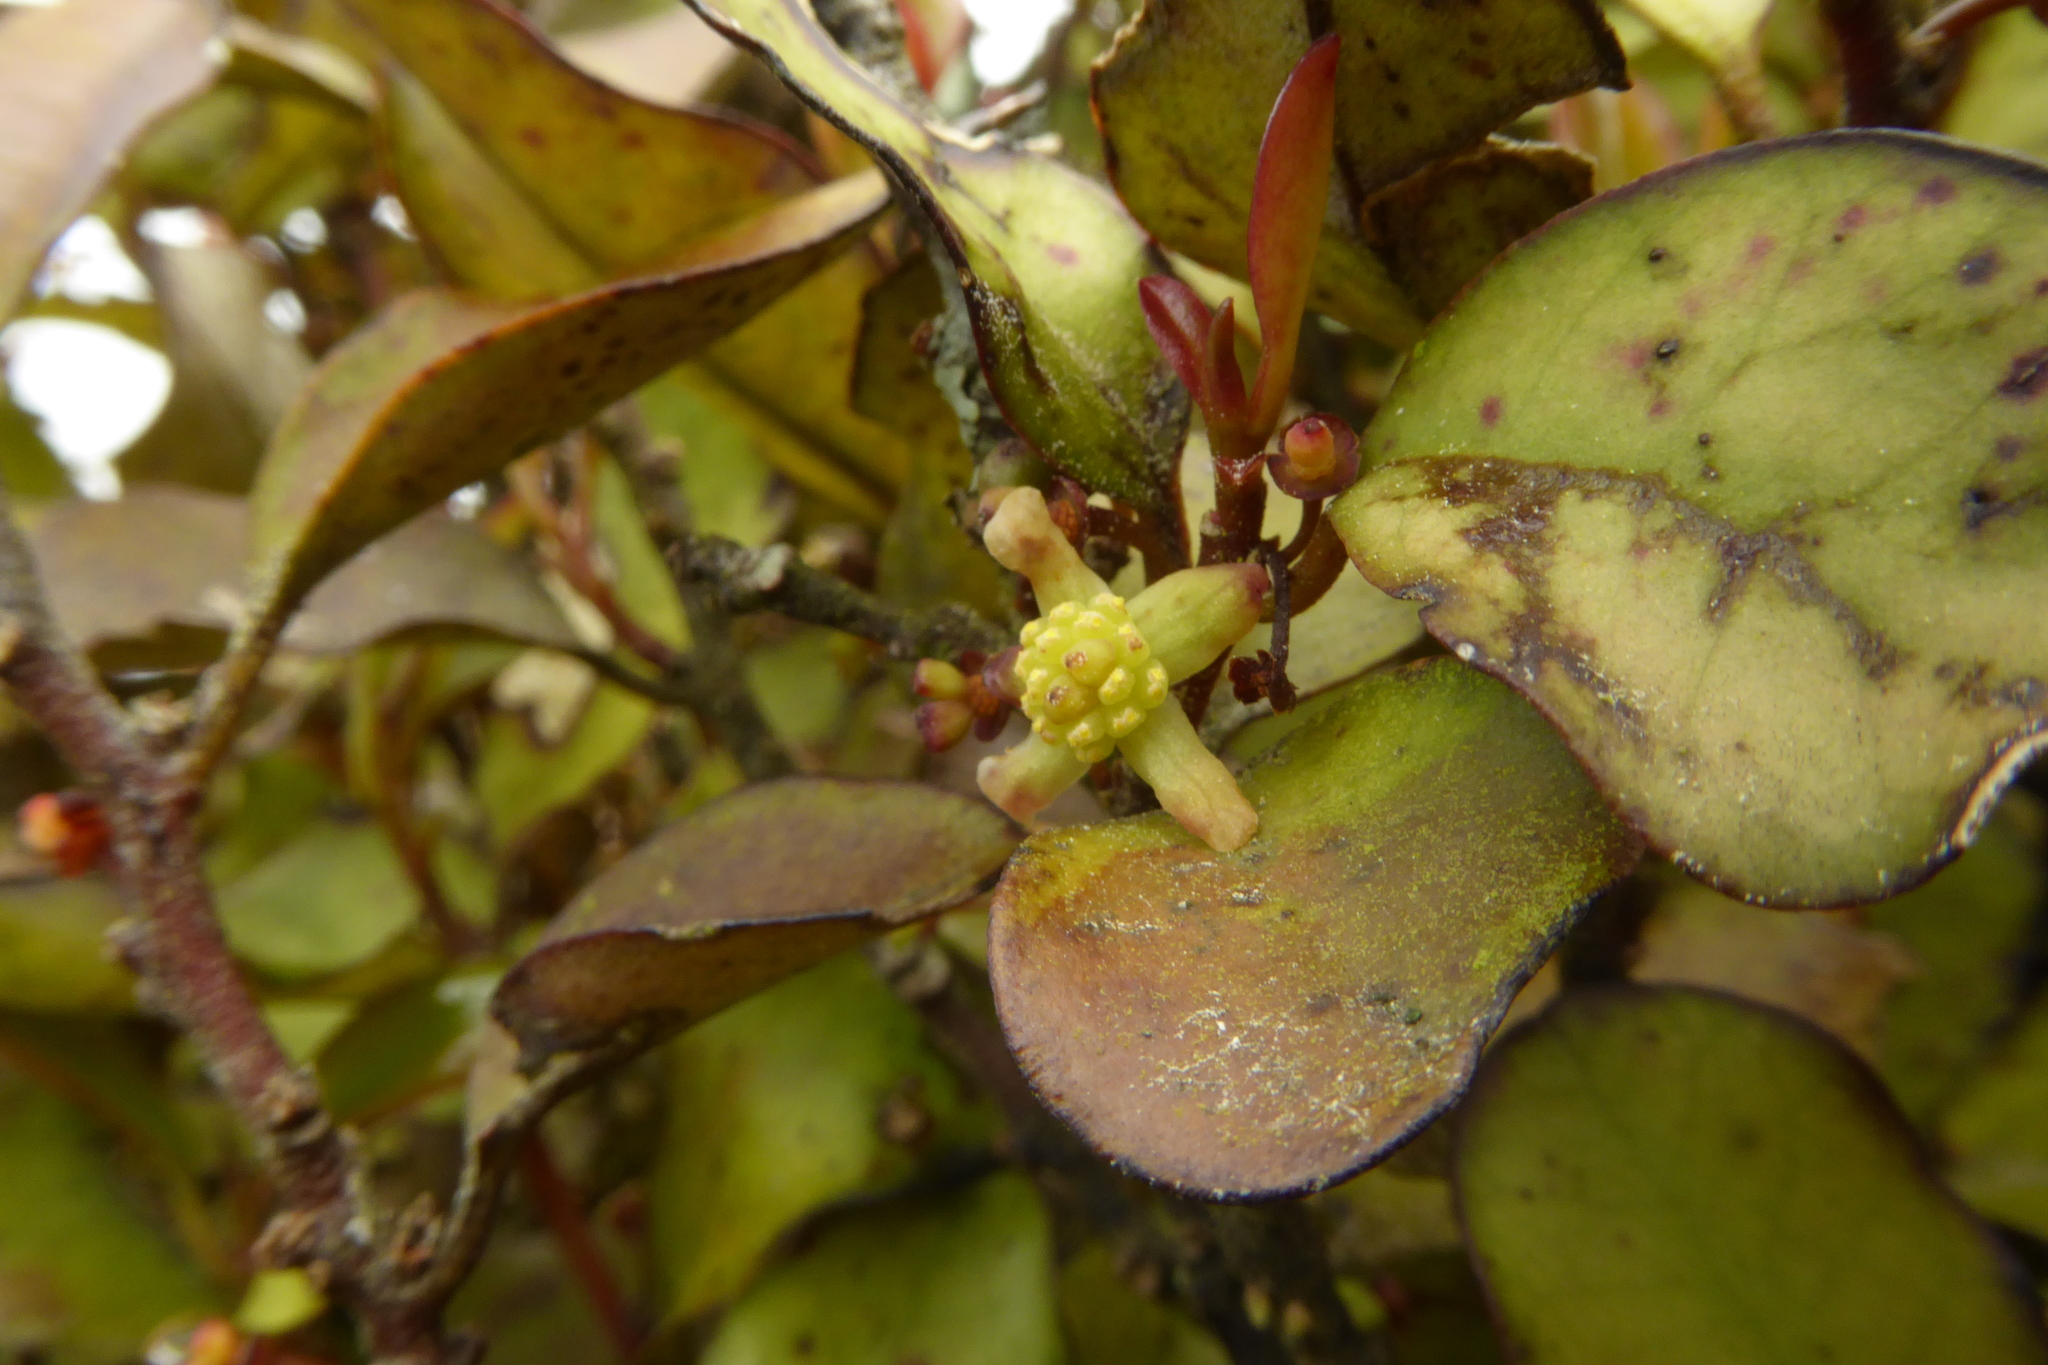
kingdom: Plantae
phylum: Tracheophyta
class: Magnoliopsida
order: Canellales
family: Winteraceae
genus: Pseudowintera
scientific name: Pseudowintera colorata
